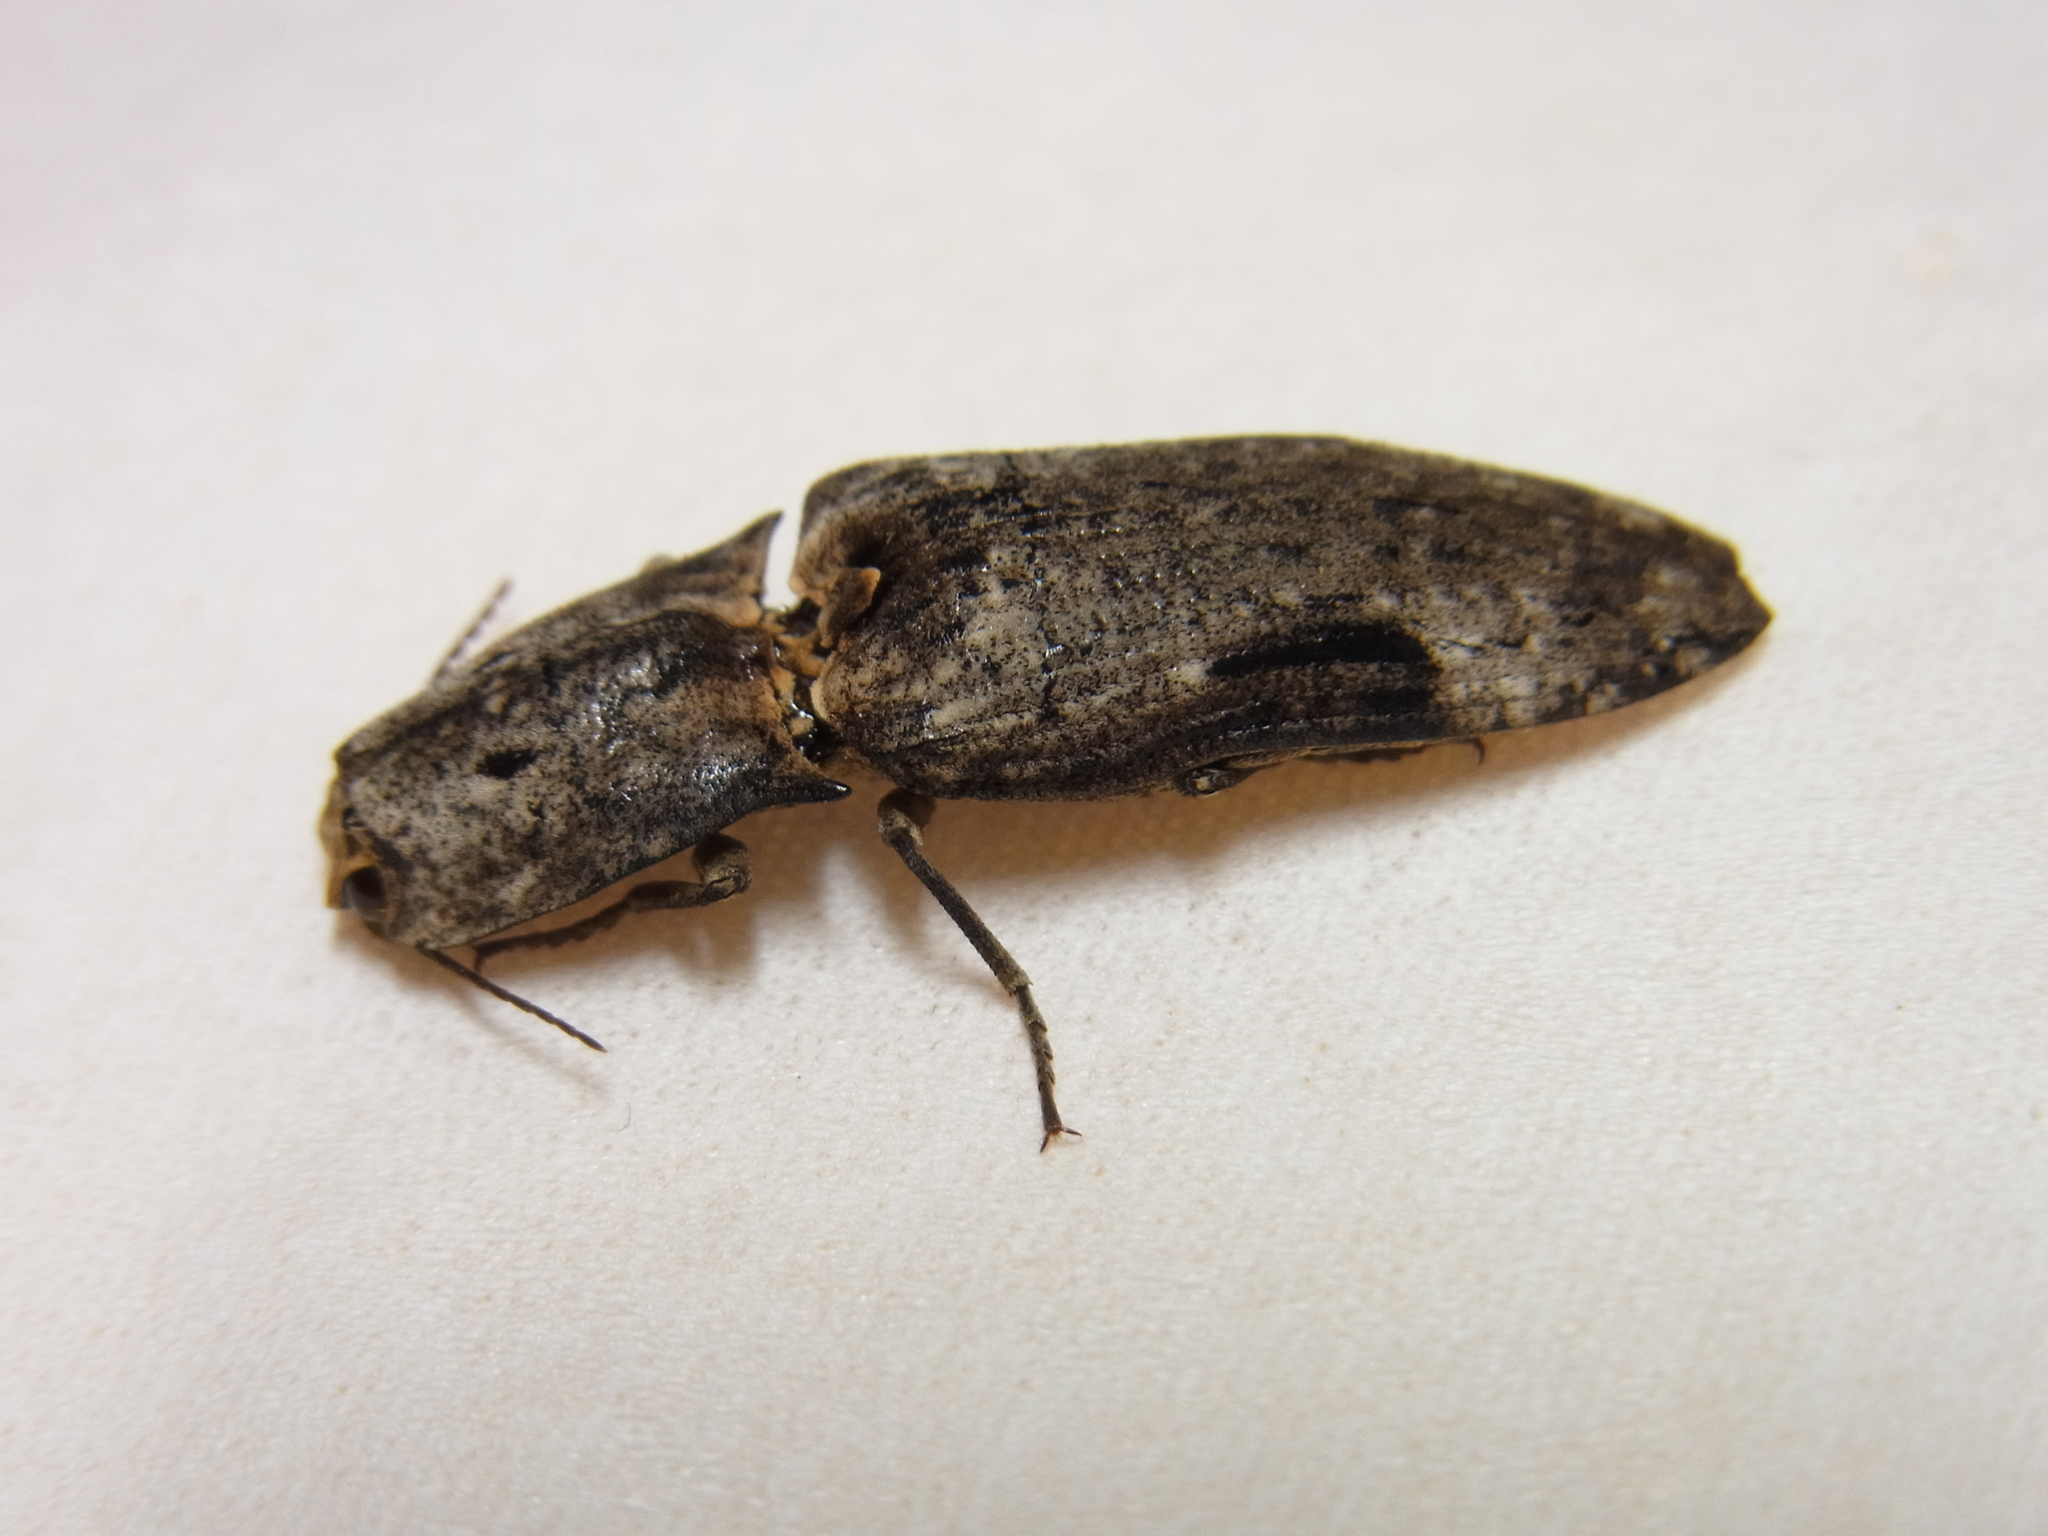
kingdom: Animalia
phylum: Arthropoda
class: Insecta
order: Coleoptera
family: Elateridae
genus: Cryptalaus
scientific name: Cryptalaus larvatus
